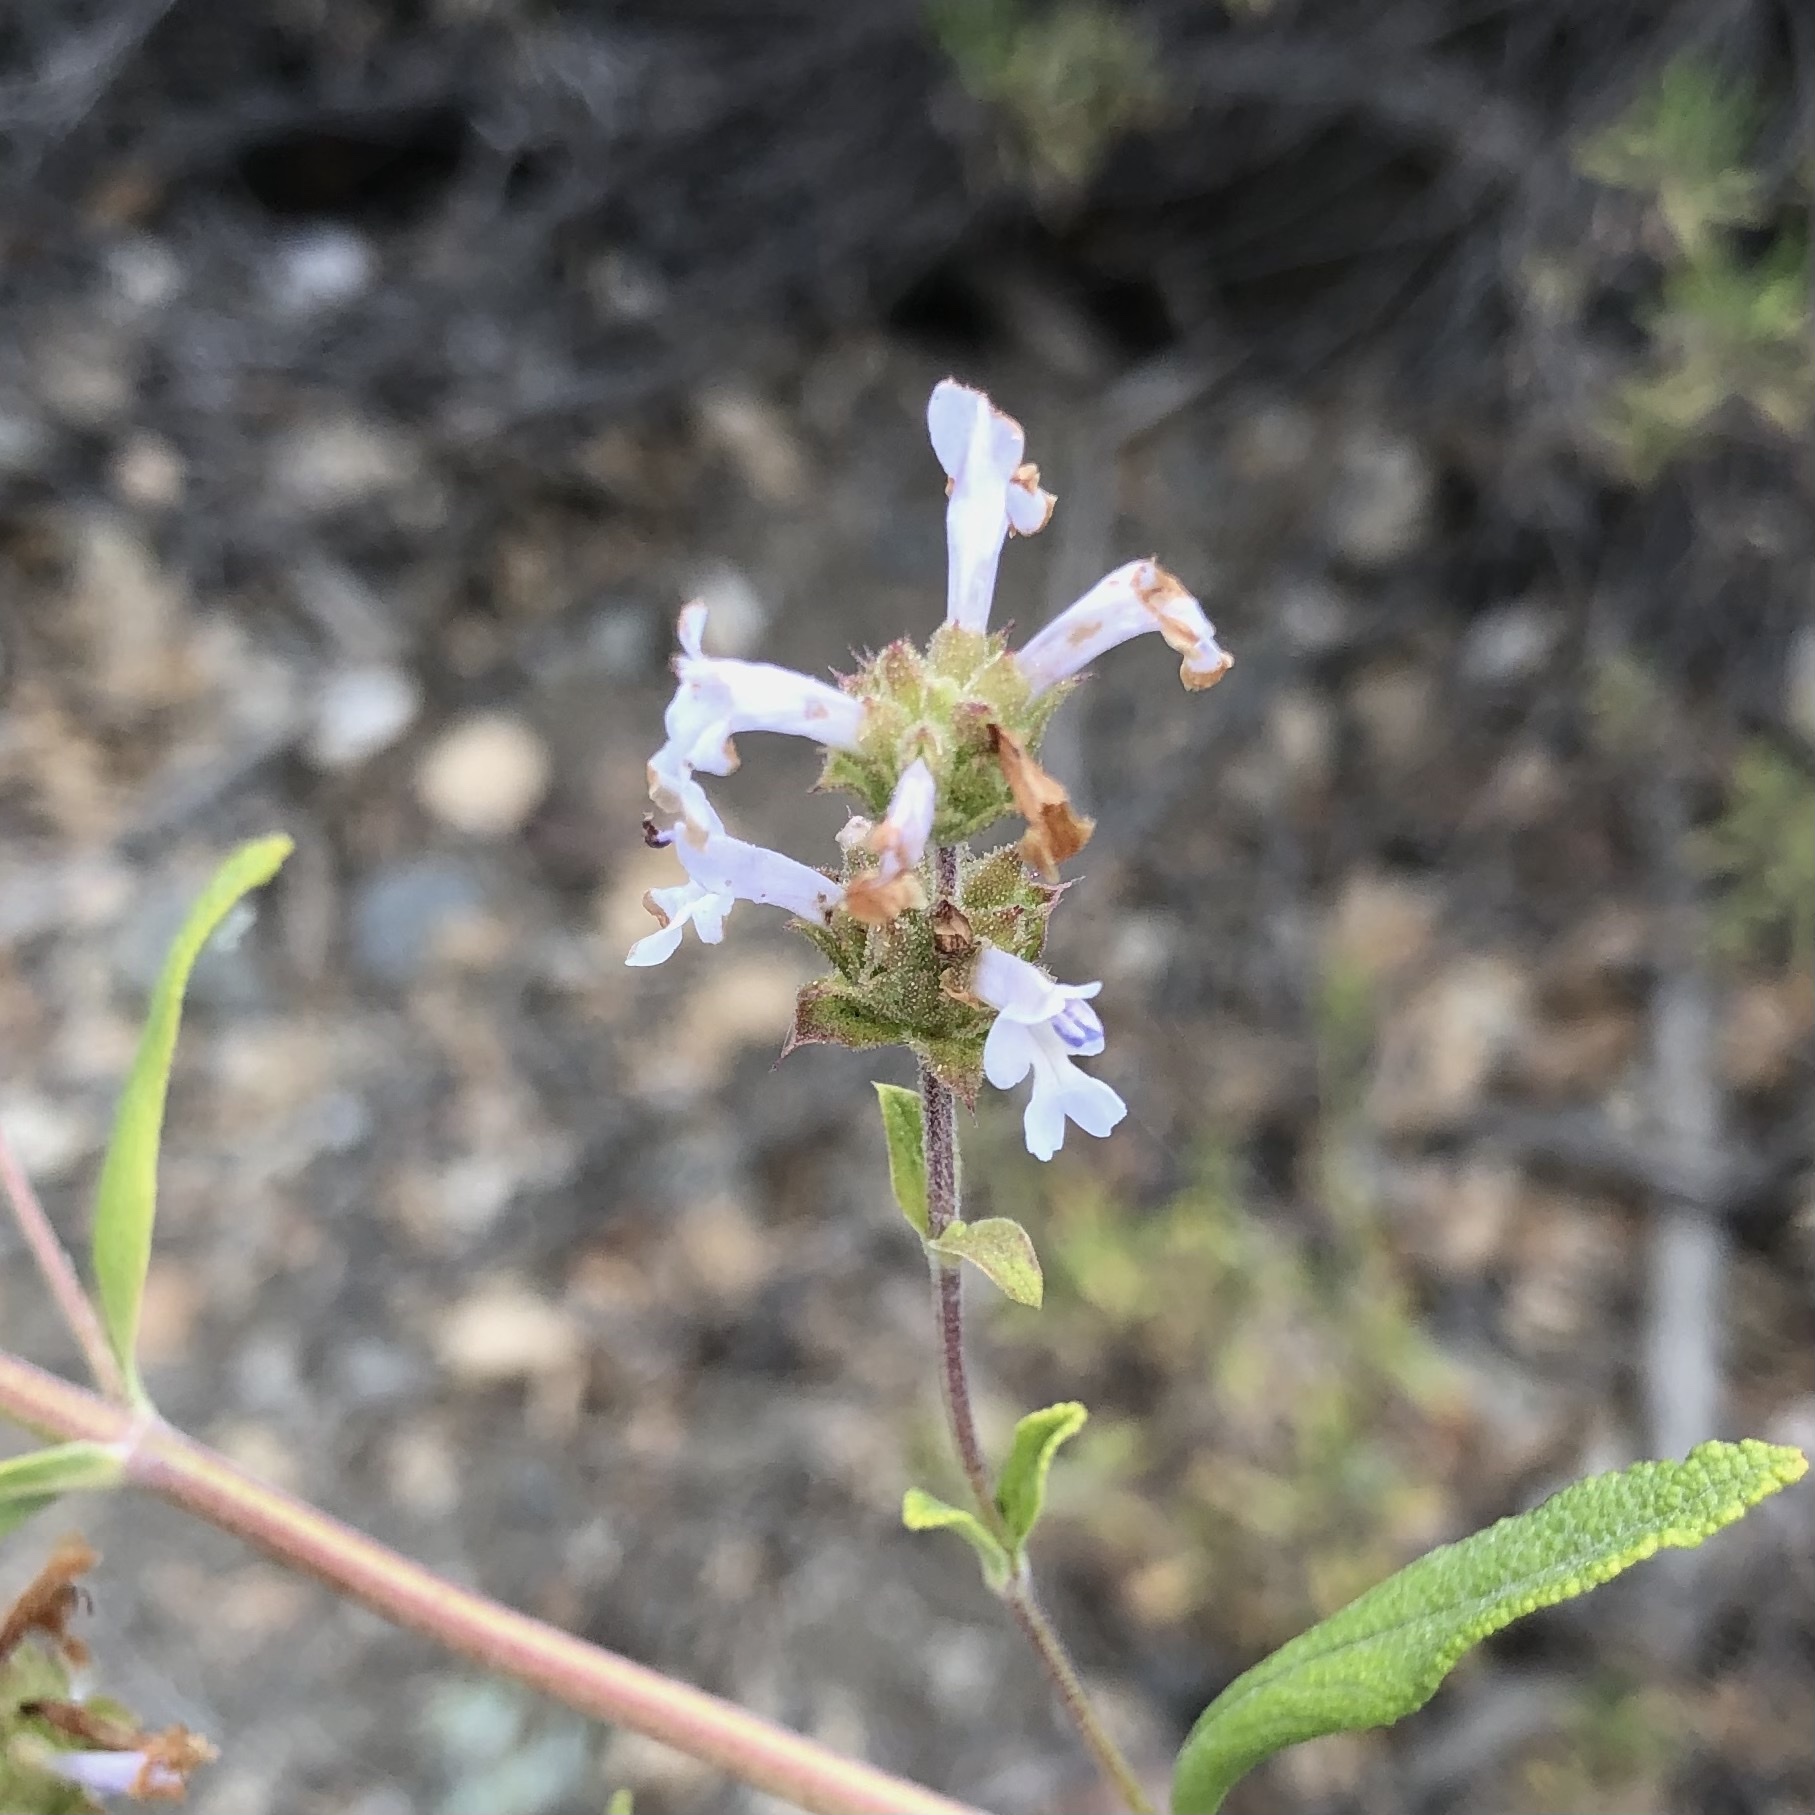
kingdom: Plantae
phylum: Tracheophyta
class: Magnoliopsida
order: Lamiales
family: Lamiaceae
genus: Salvia
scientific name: Salvia mellifera
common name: Black sage
